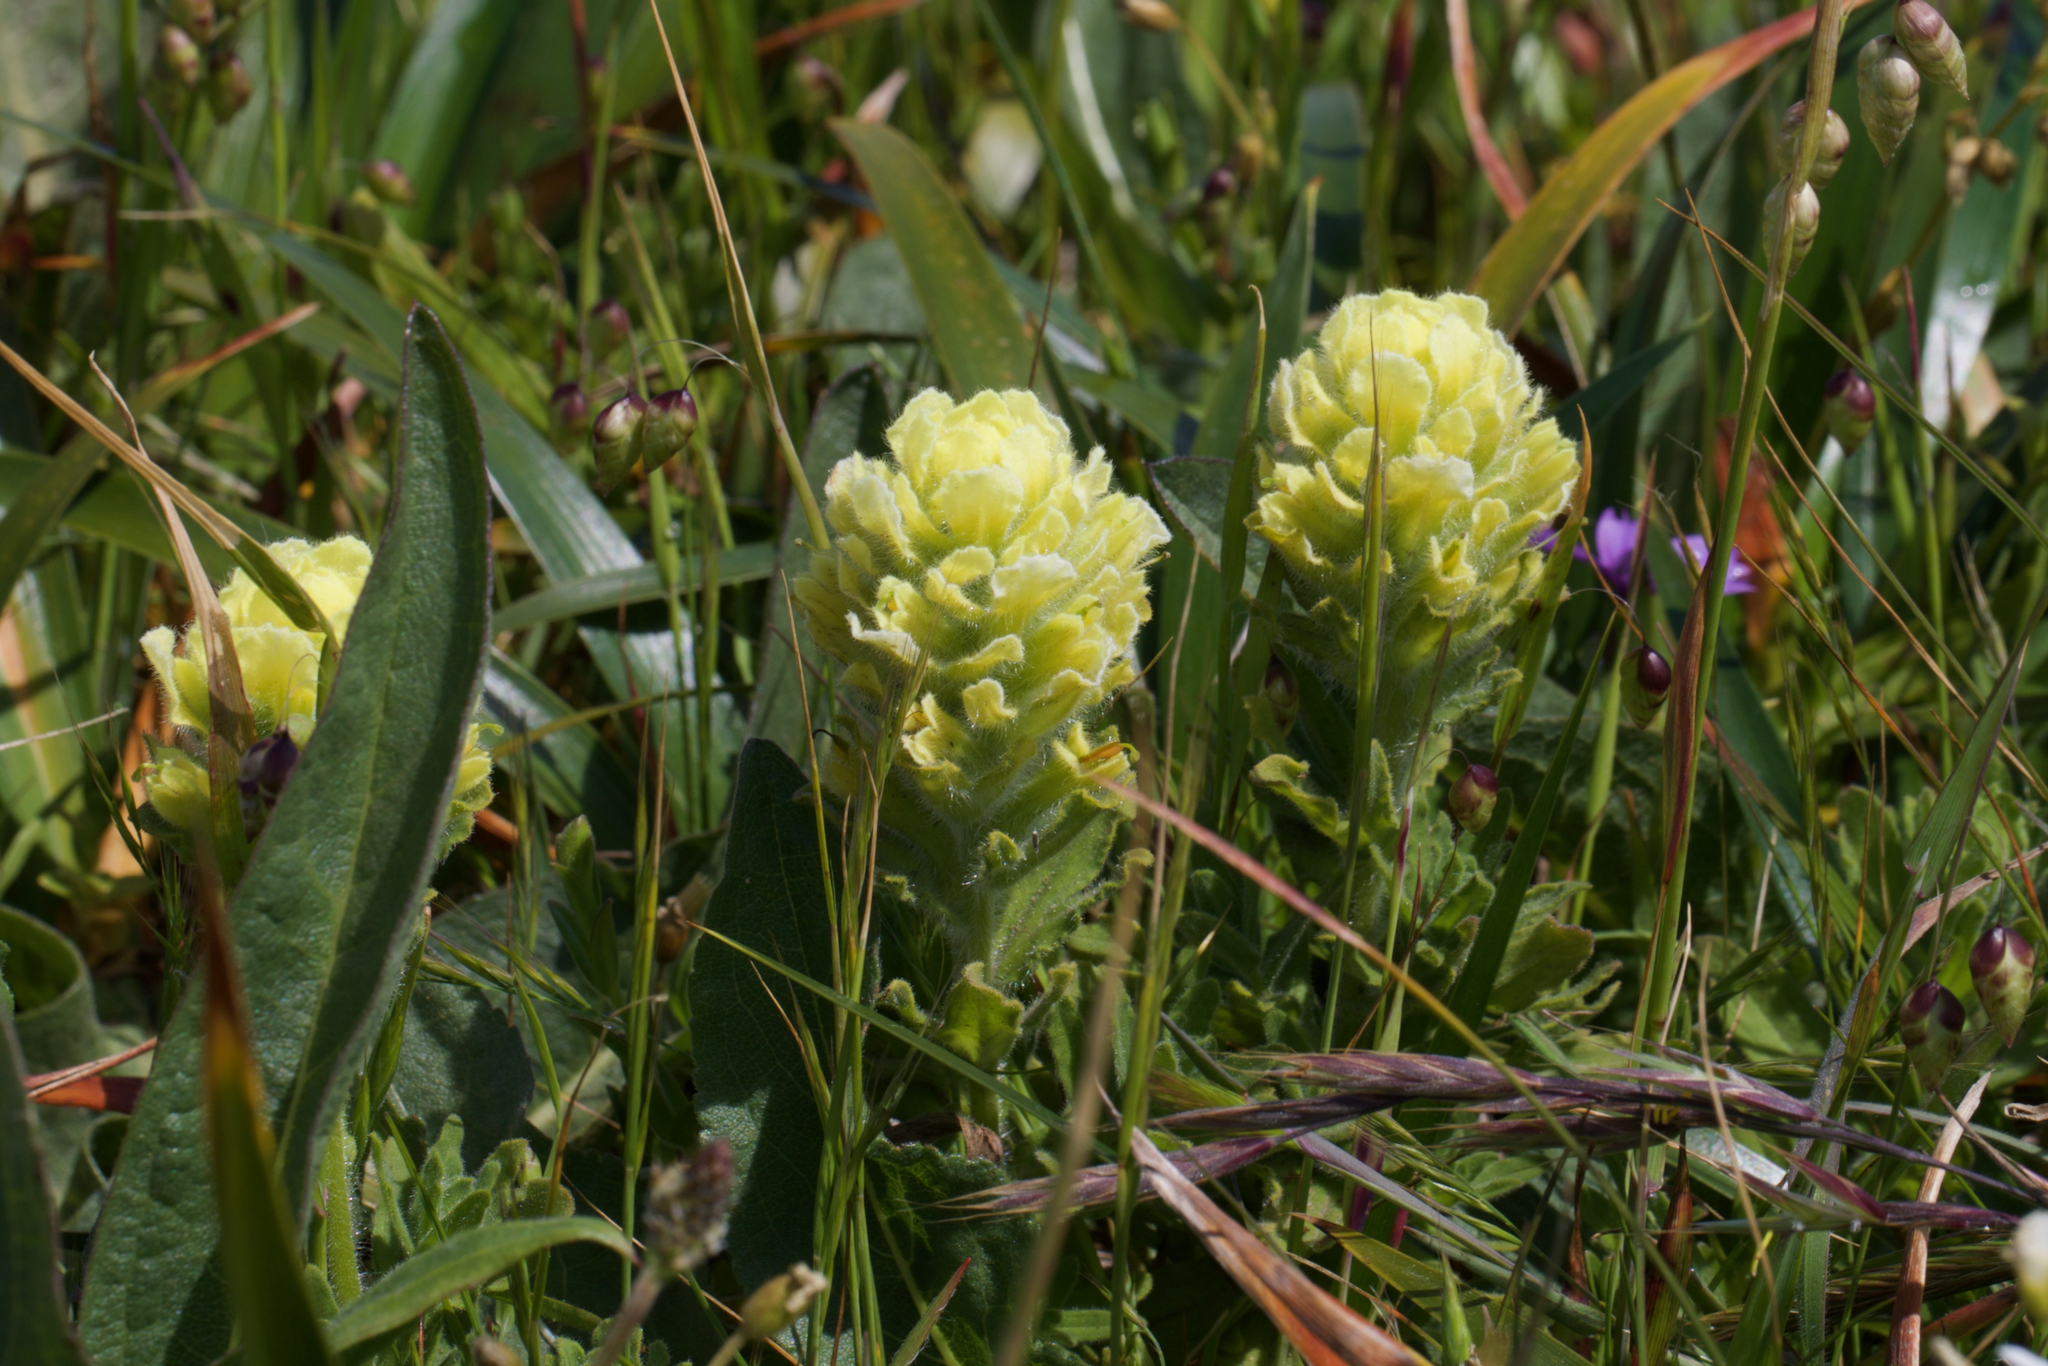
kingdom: Plantae
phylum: Tracheophyta
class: Magnoliopsida
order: Lamiales
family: Orobanchaceae
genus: Castilleja
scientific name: Castilleja wightii
